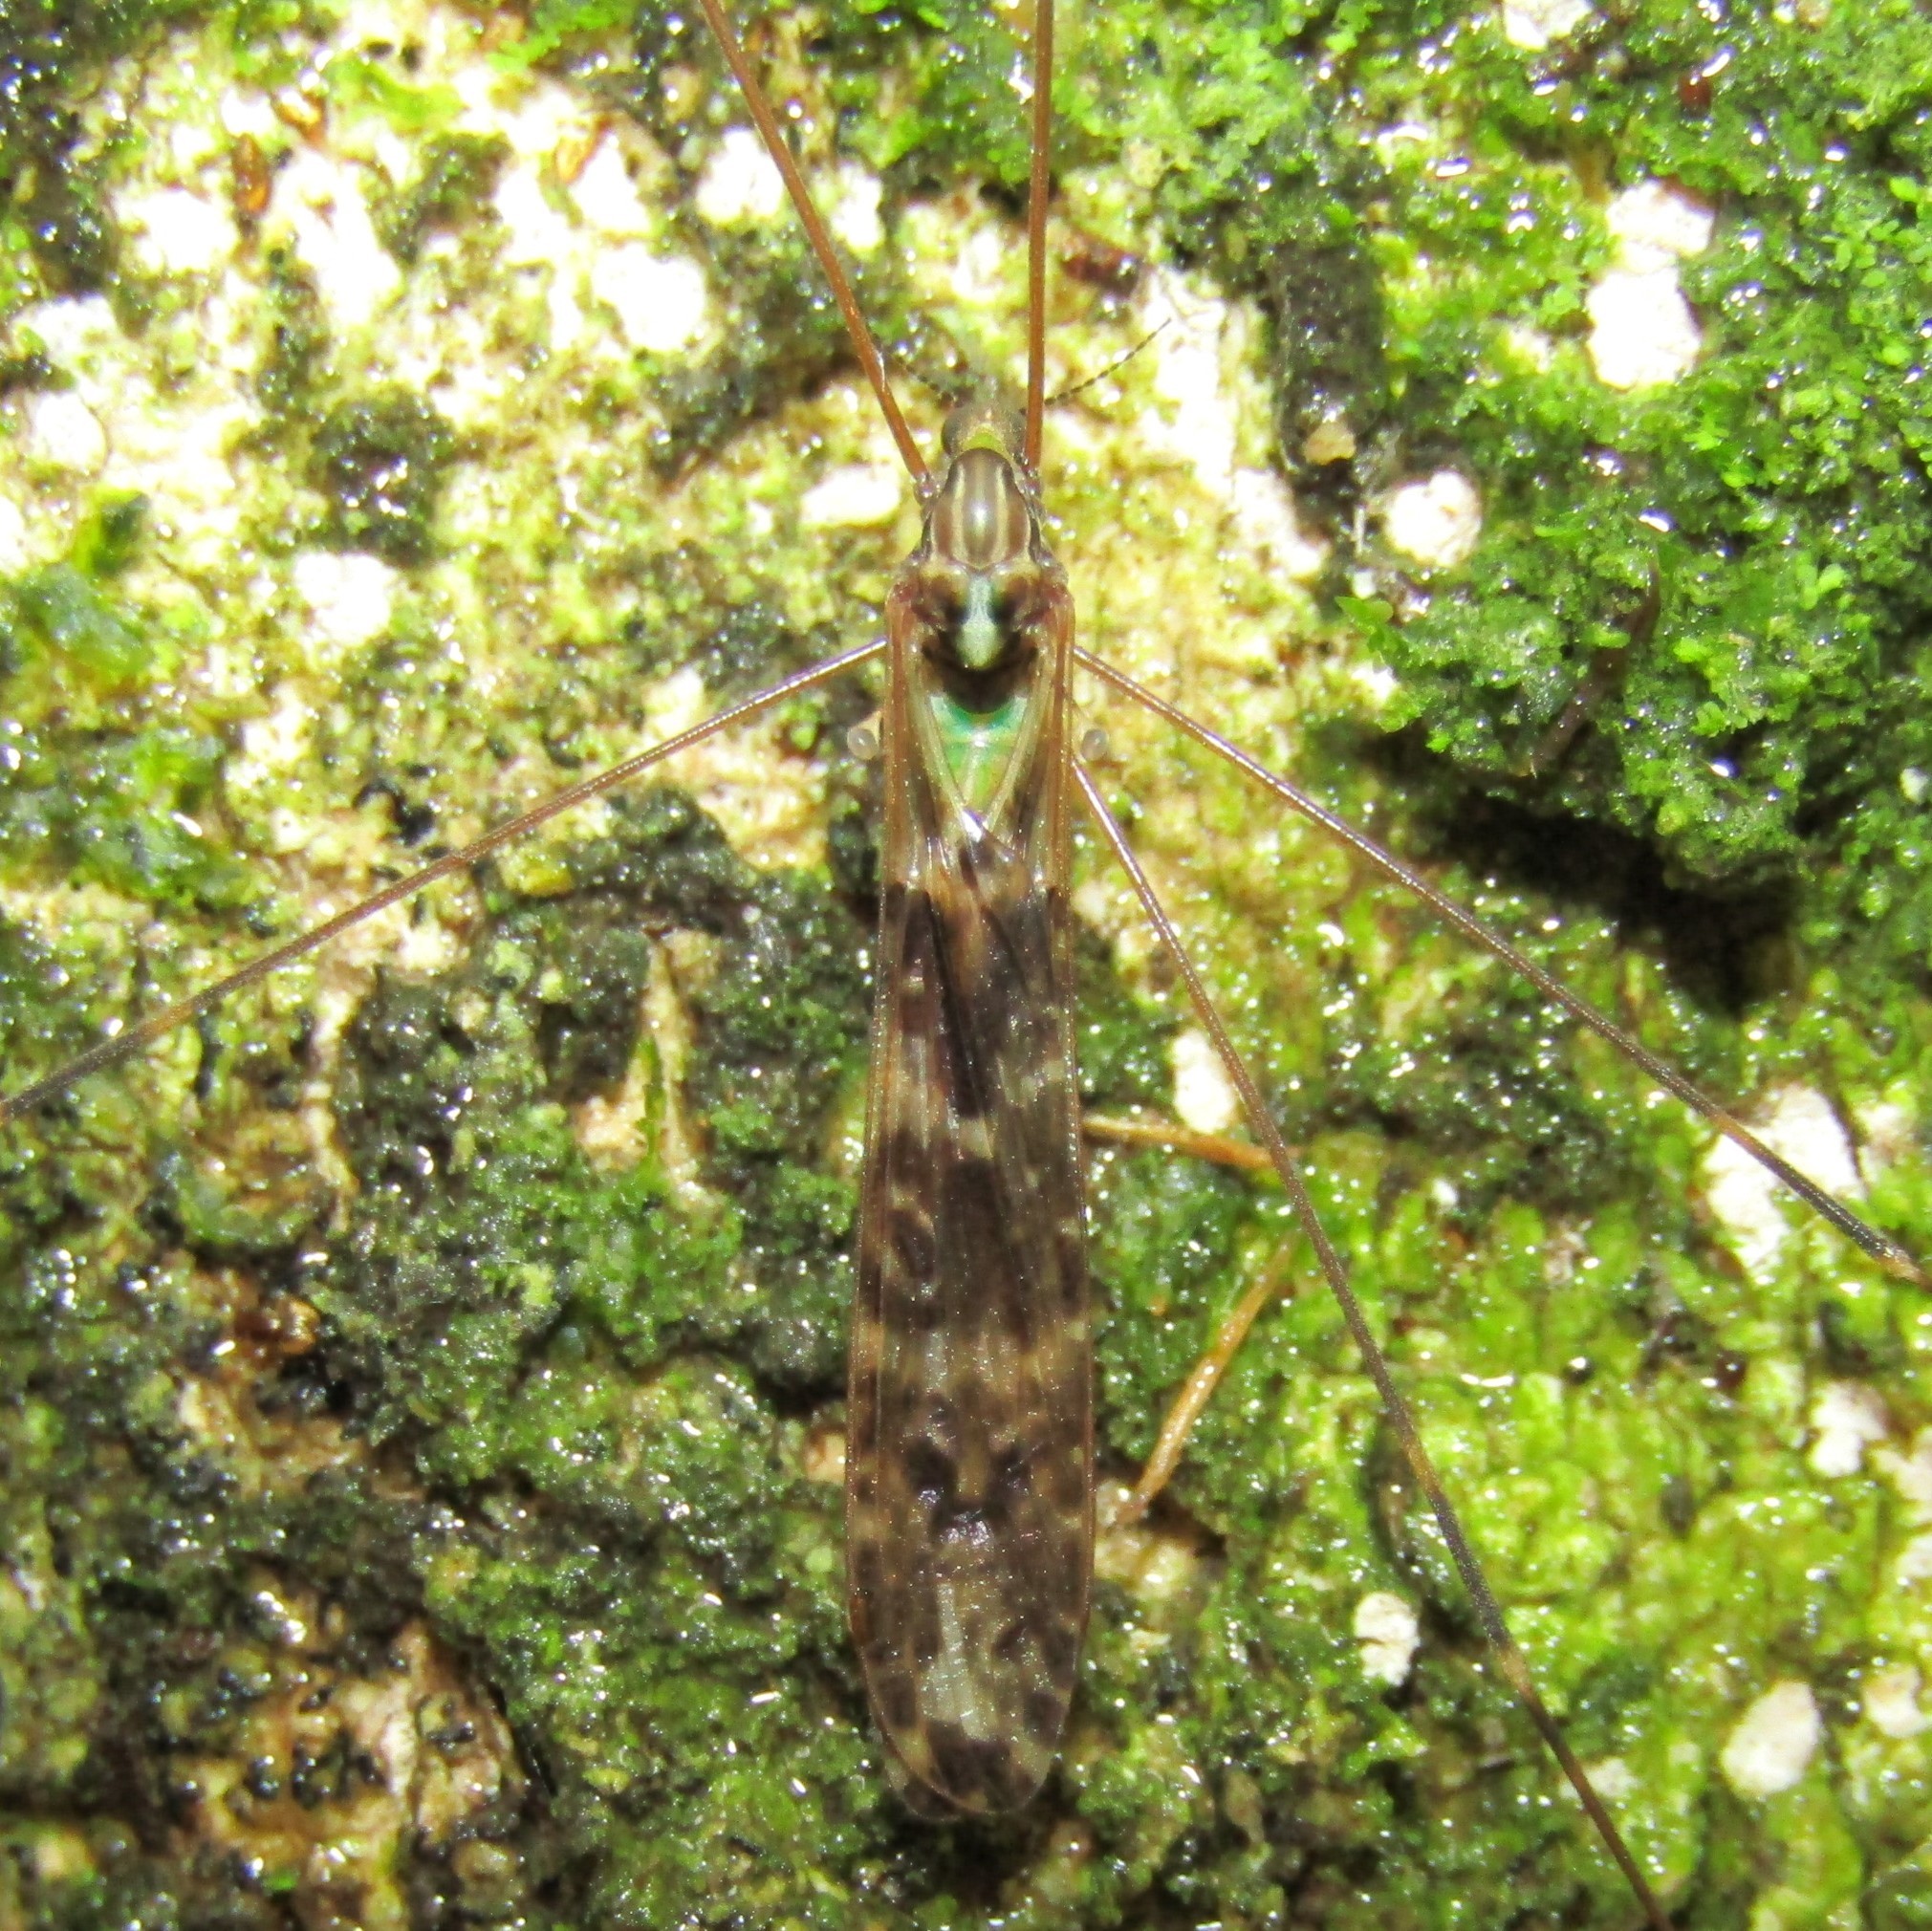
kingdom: Animalia
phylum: Arthropoda
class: Insecta
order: Diptera
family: Limoniidae
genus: Discobola
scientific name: Discobola dohrni
